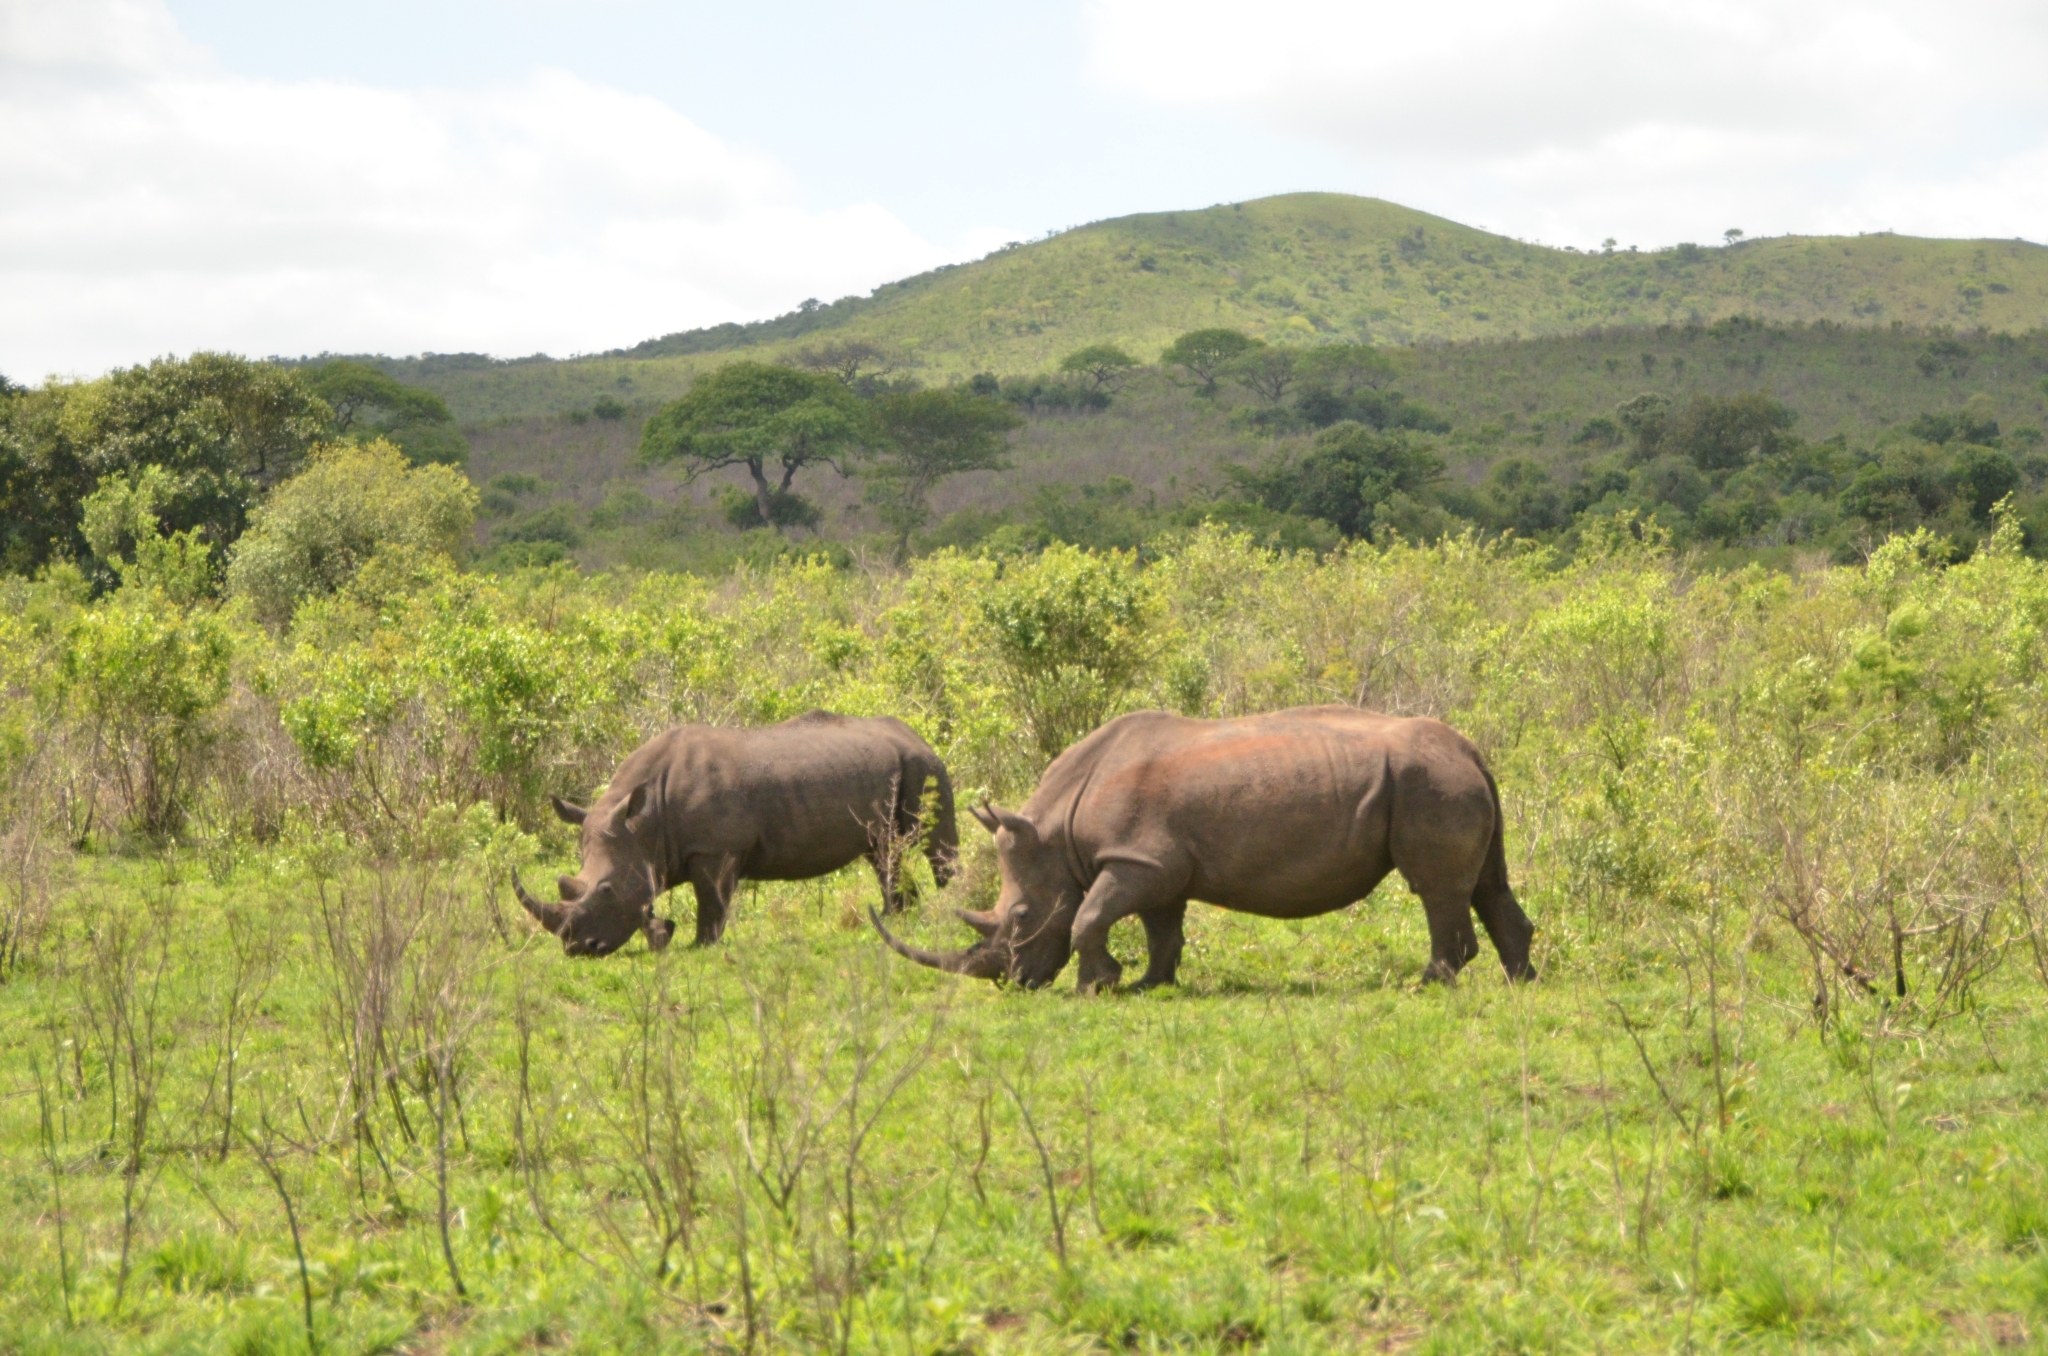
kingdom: Animalia
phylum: Chordata
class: Mammalia
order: Perissodactyla
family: Rhinocerotidae
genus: Ceratotherium
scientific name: Ceratotherium simum
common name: White rhinoceros
